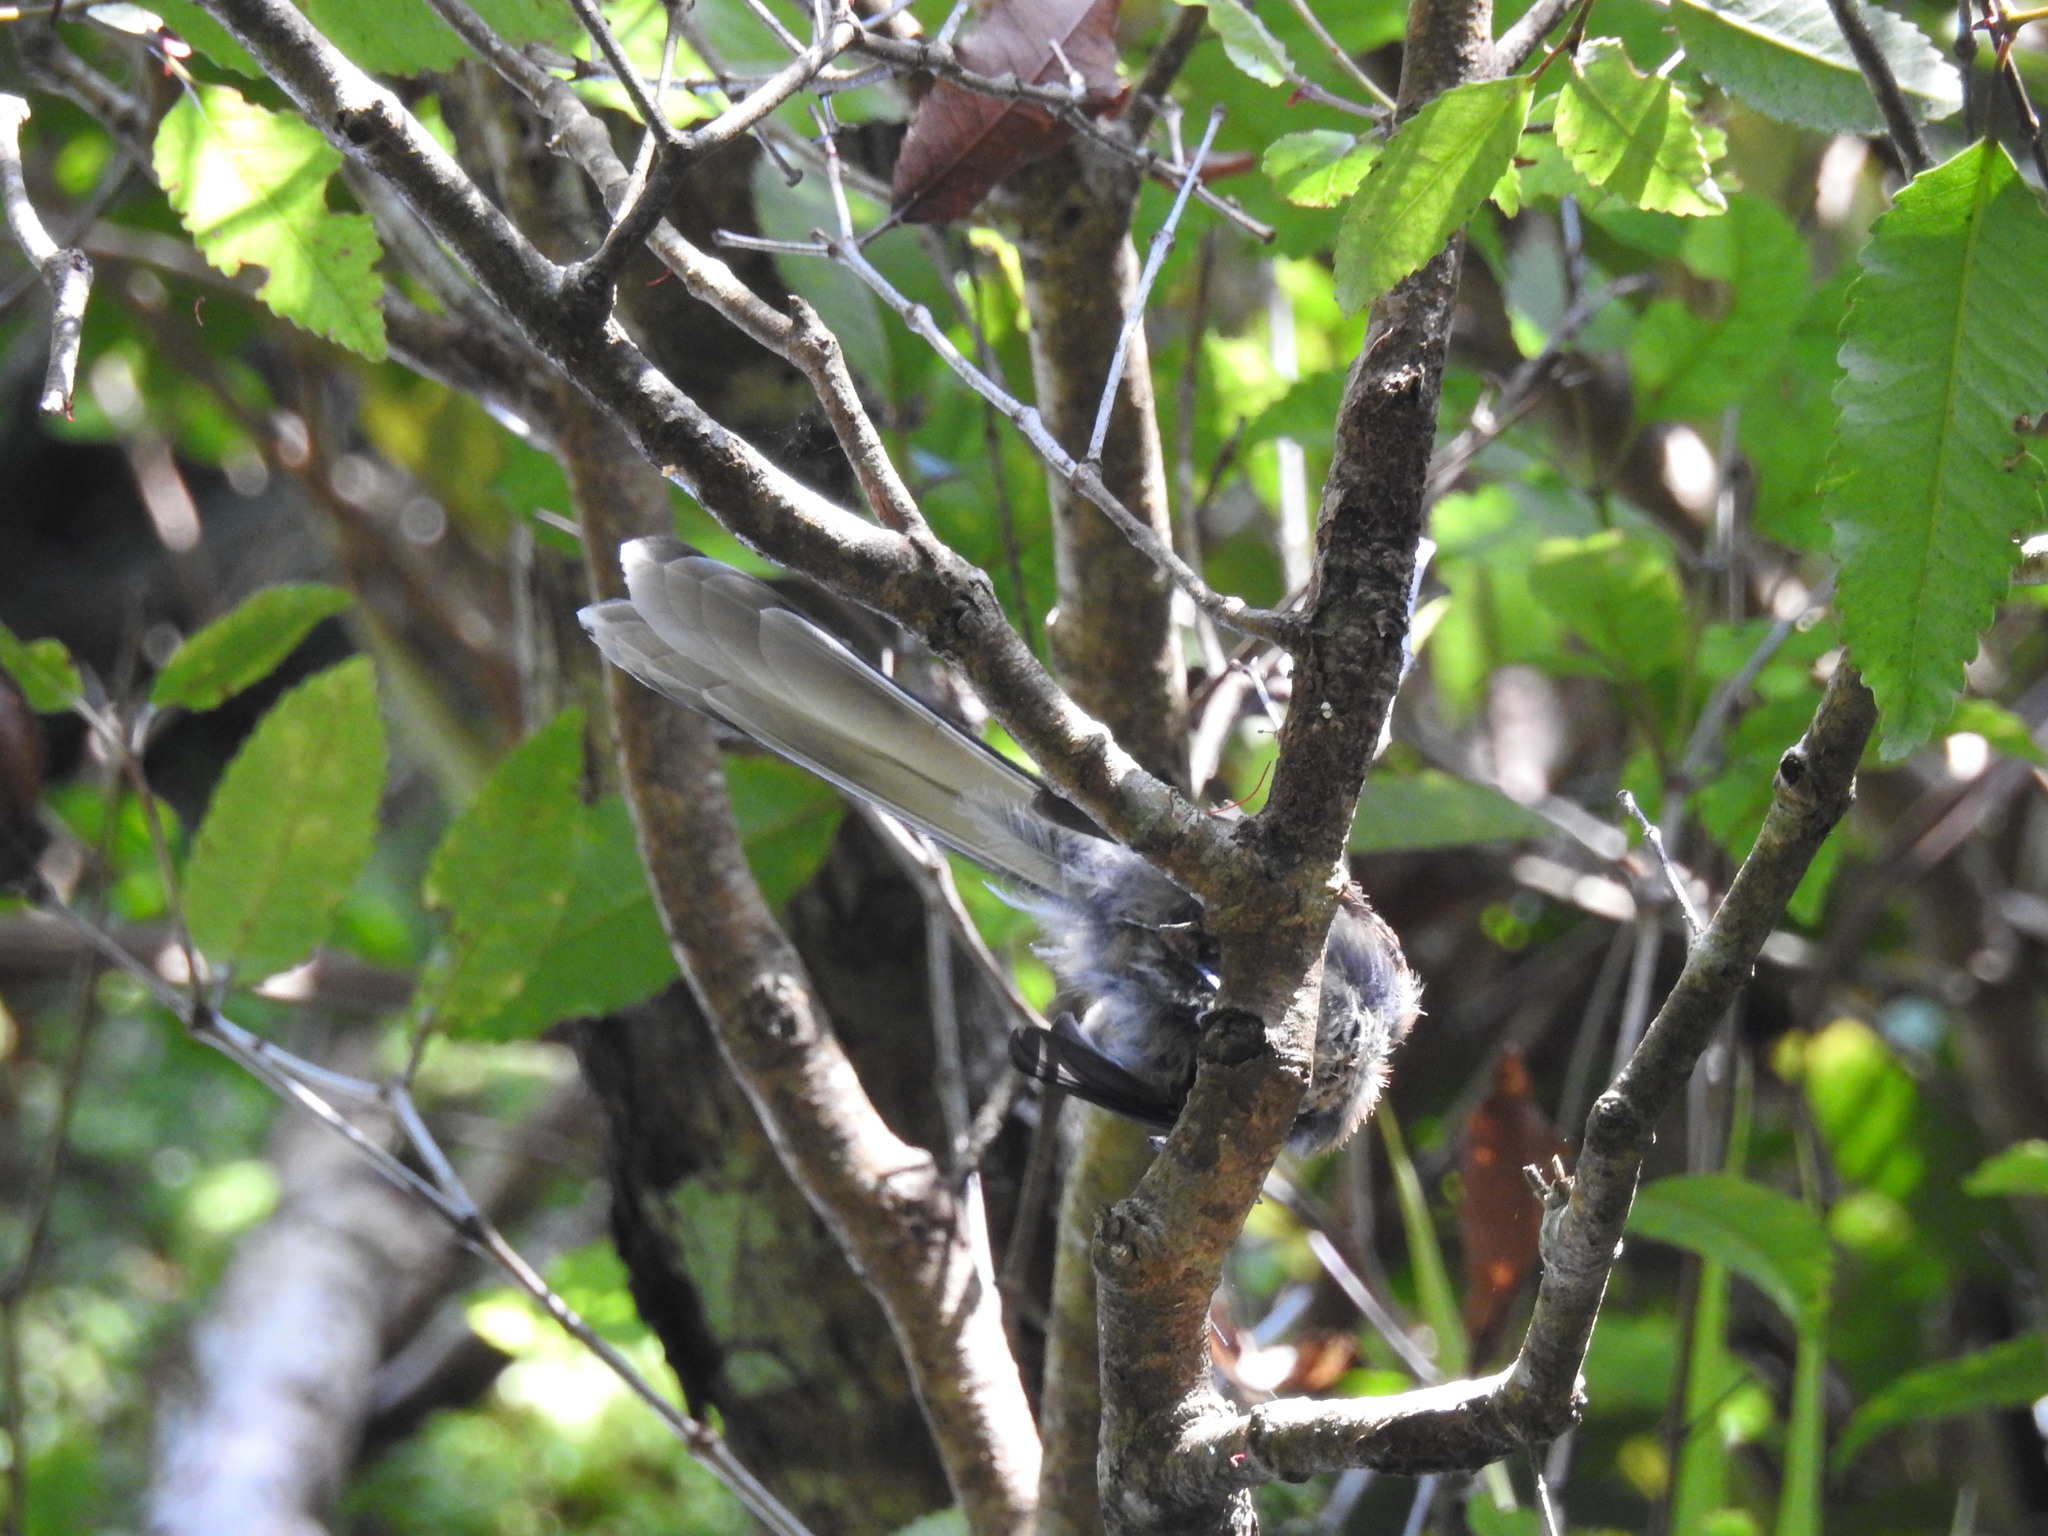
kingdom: Animalia
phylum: Chordata
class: Aves
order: Passeriformes
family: Rhipiduridae
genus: Rhipidura
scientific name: Rhipidura fuliginosa
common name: New zealand fantail
